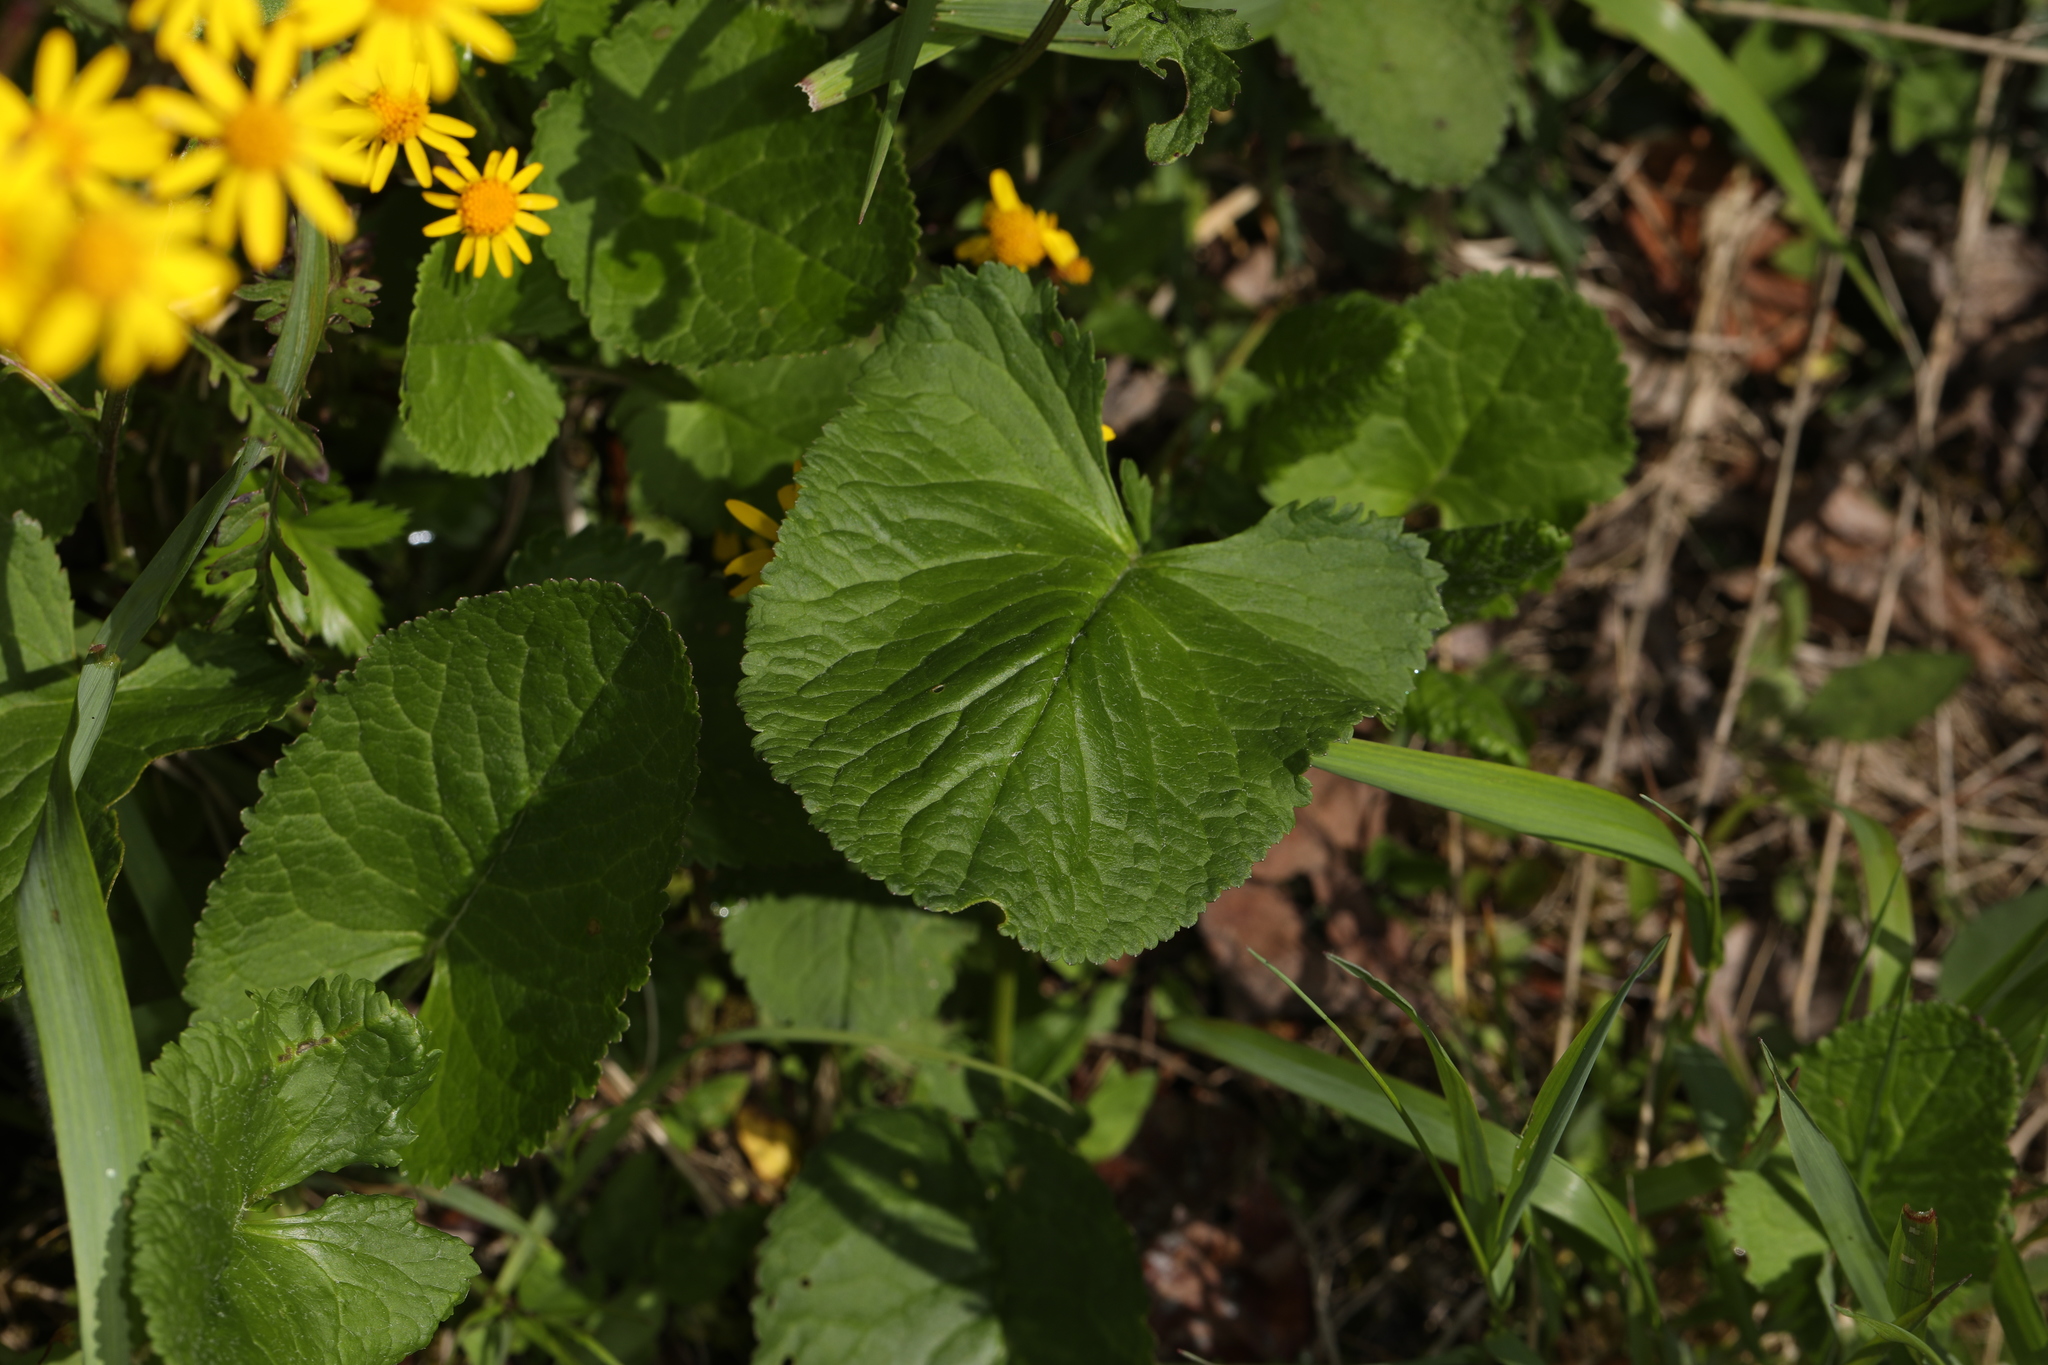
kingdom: Plantae
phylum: Tracheophyta
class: Magnoliopsida
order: Asterales
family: Asteraceae
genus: Packera
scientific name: Packera aurea
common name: Golden groundsel
